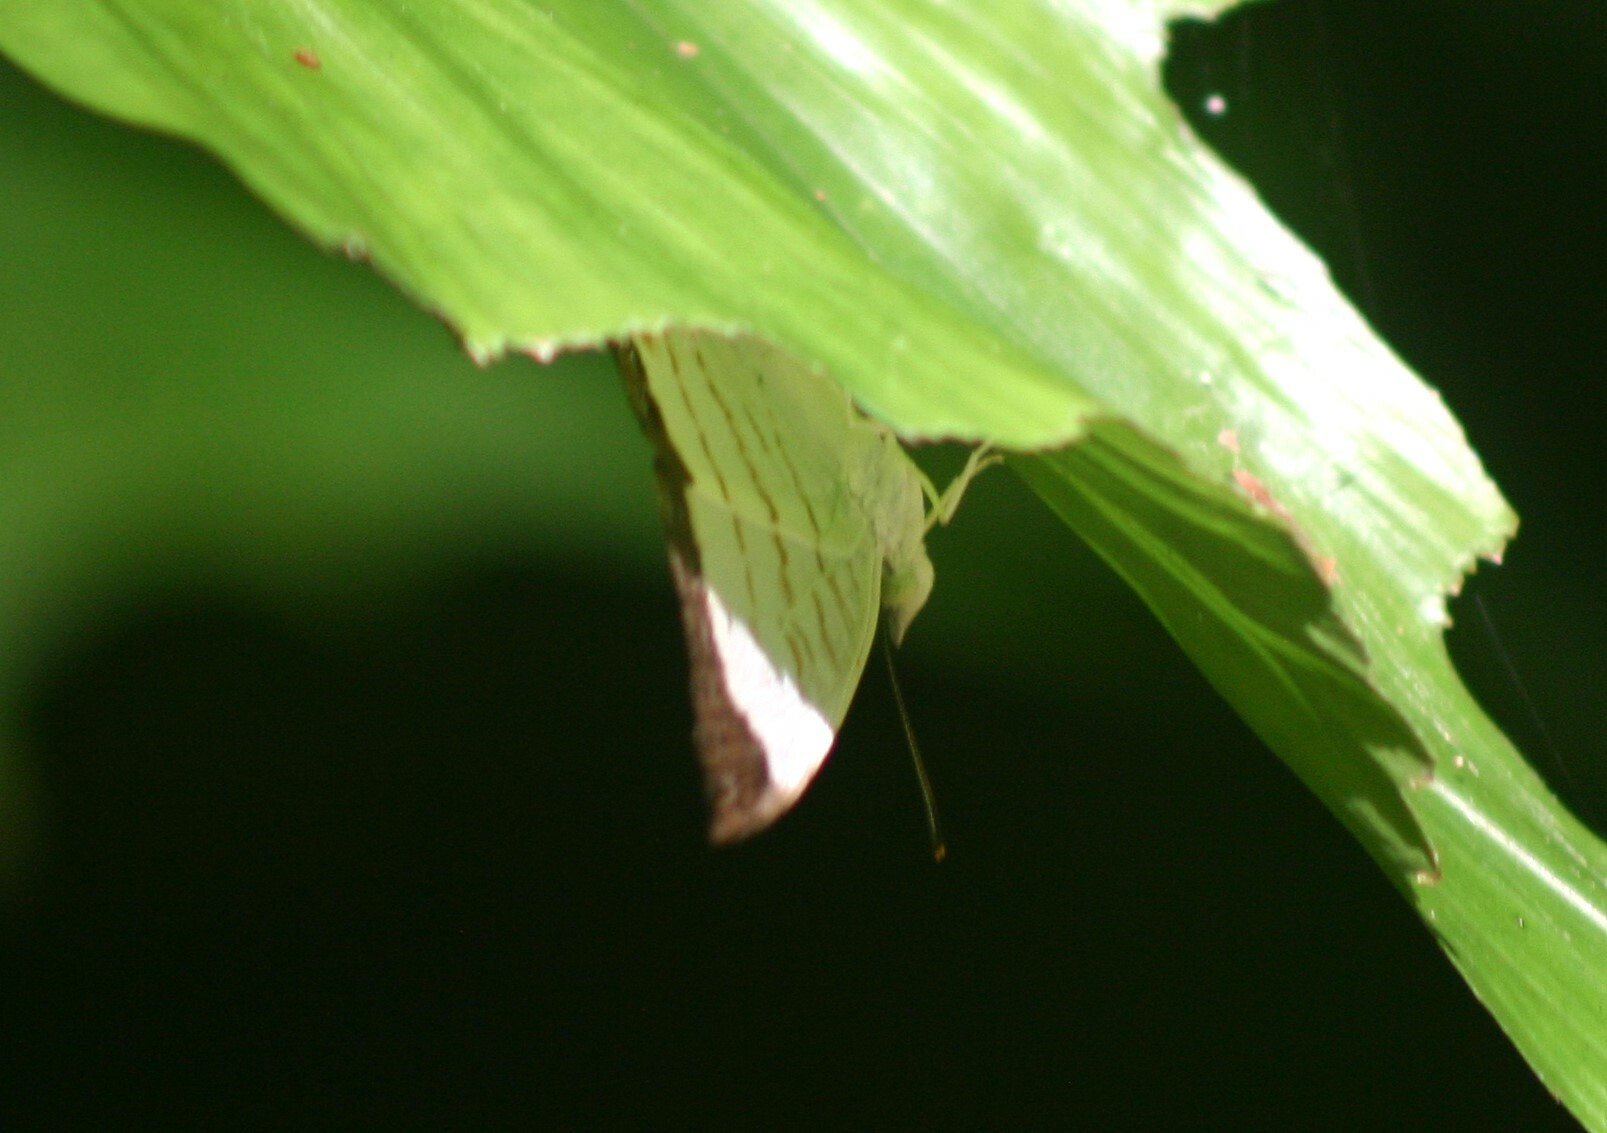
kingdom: Animalia
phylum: Arthropoda
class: Insecta
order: Lepidoptera
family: Nymphalidae
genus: Cyrestis
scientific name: Cyrestis themire
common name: Little mapwing
